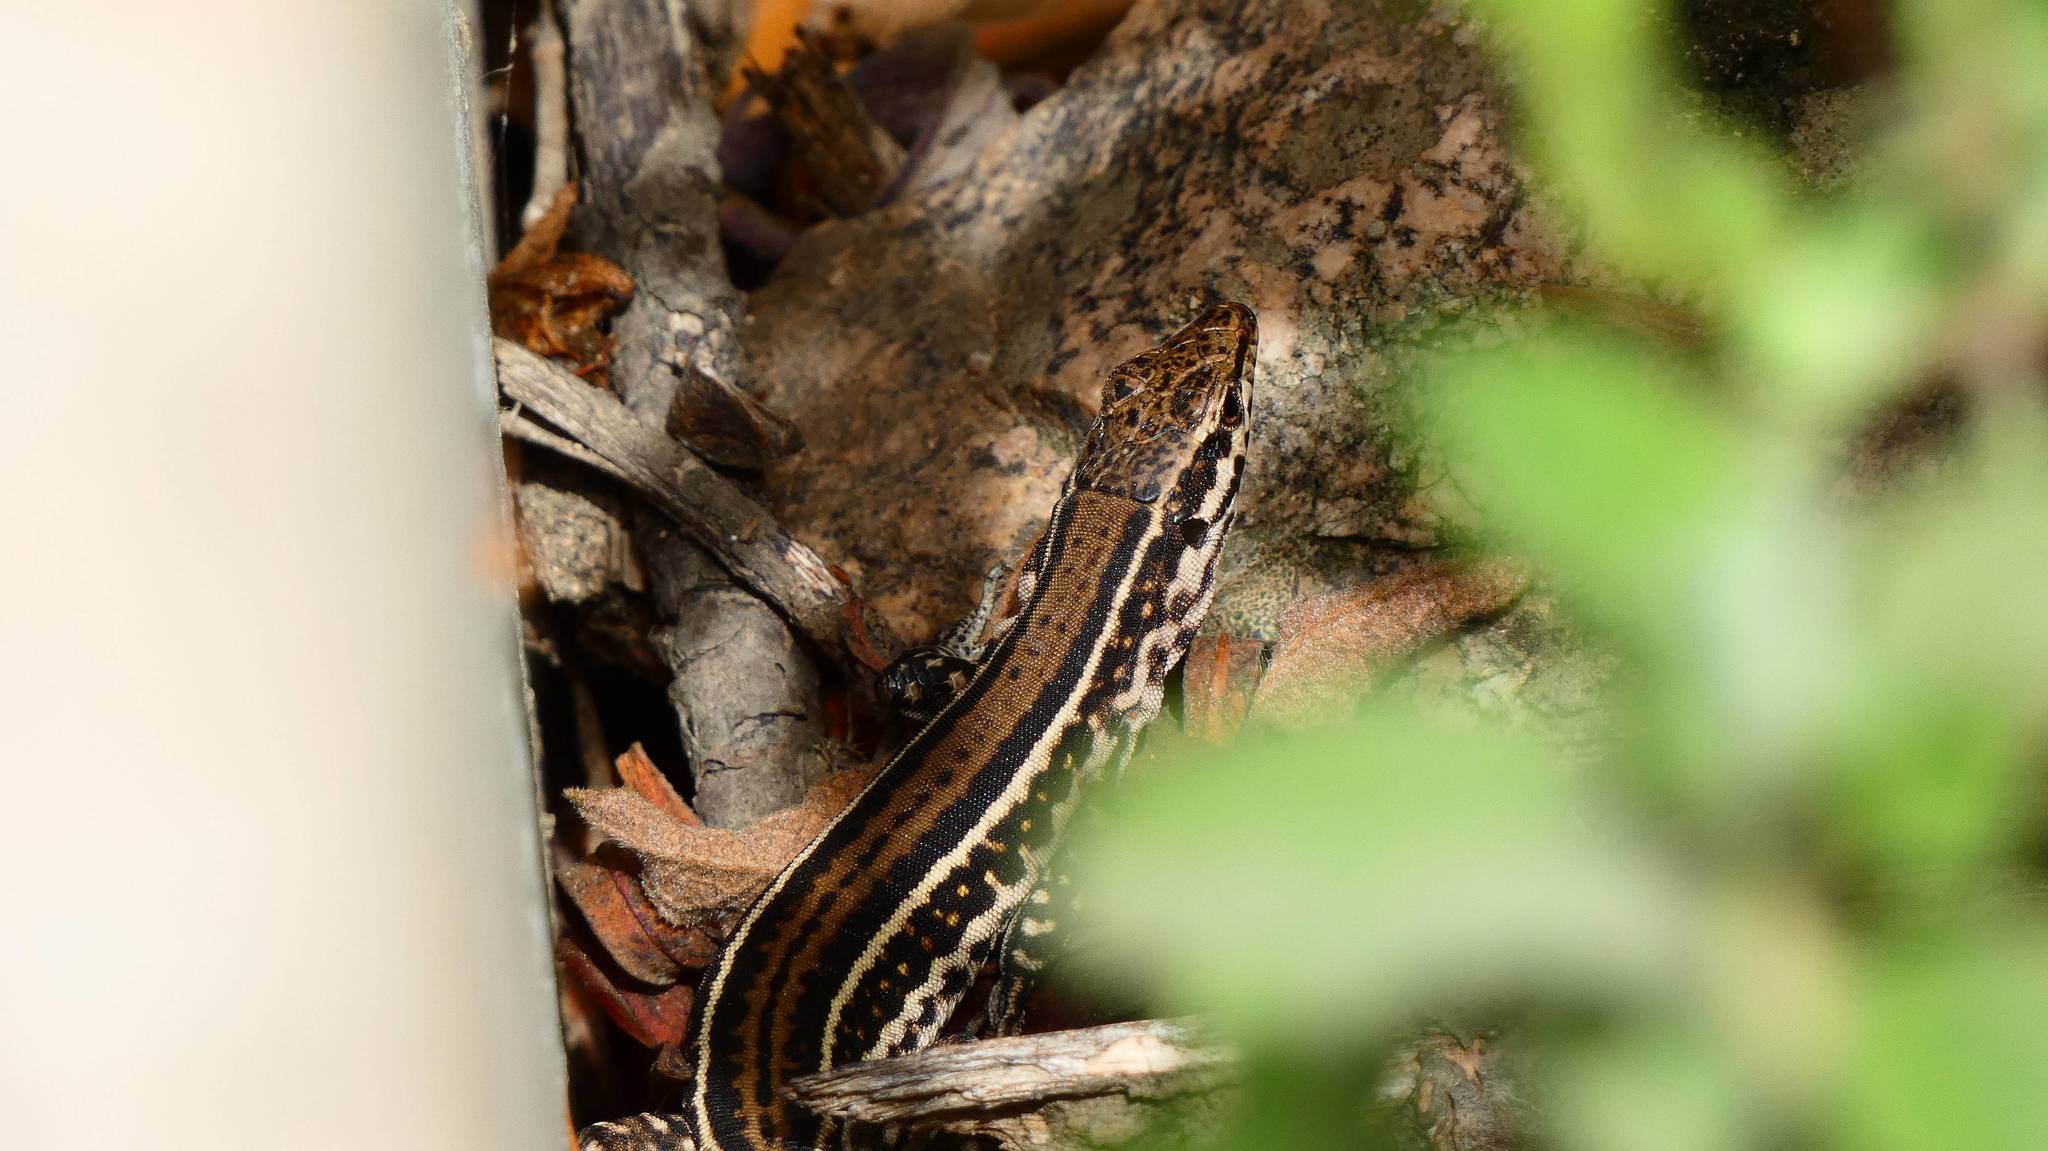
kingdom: Animalia
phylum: Chordata
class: Squamata
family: Lacertidae
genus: Podarcis
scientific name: Podarcis tiliguerta
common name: Tyrrhenian wall lizard
